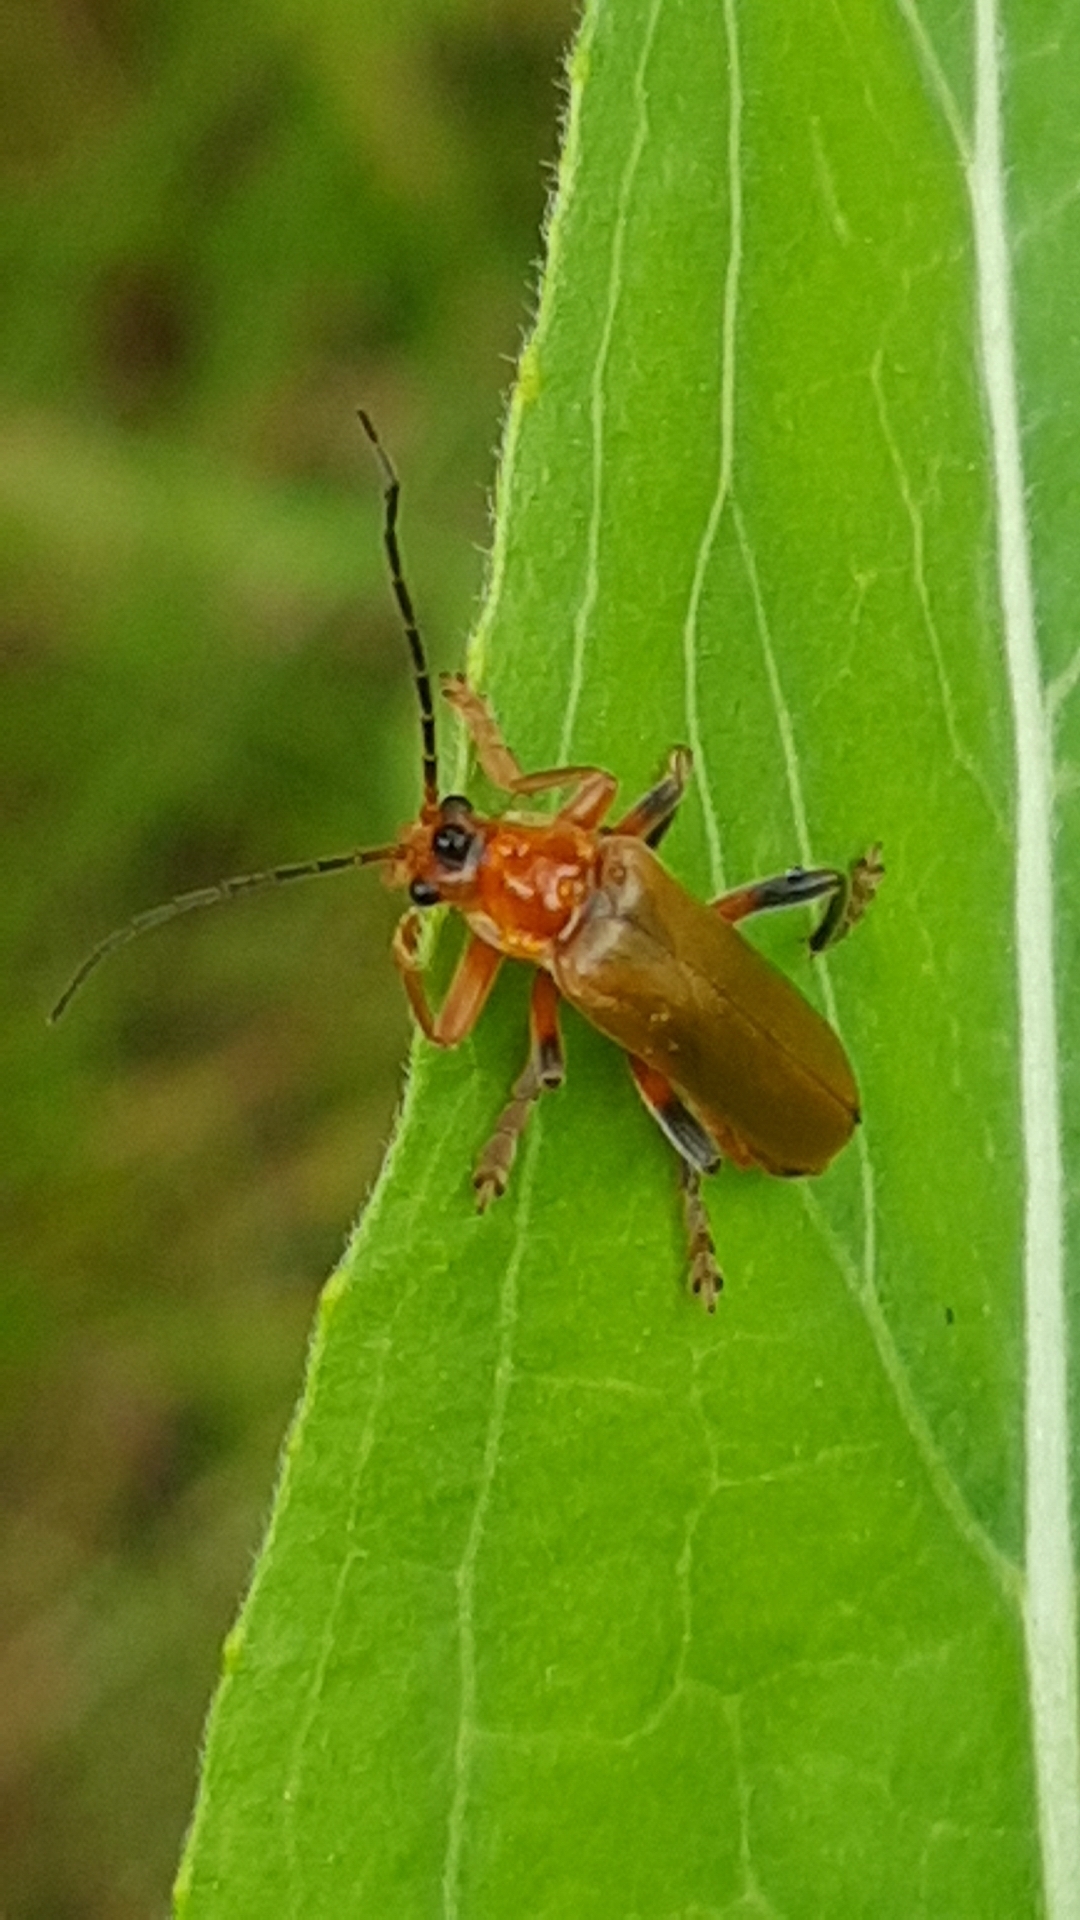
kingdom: Animalia
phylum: Arthropoda
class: Insecta
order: Coleoptera
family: Cantharidae
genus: Cantharis
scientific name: Cantharis livida
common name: Livid soldier beetle
